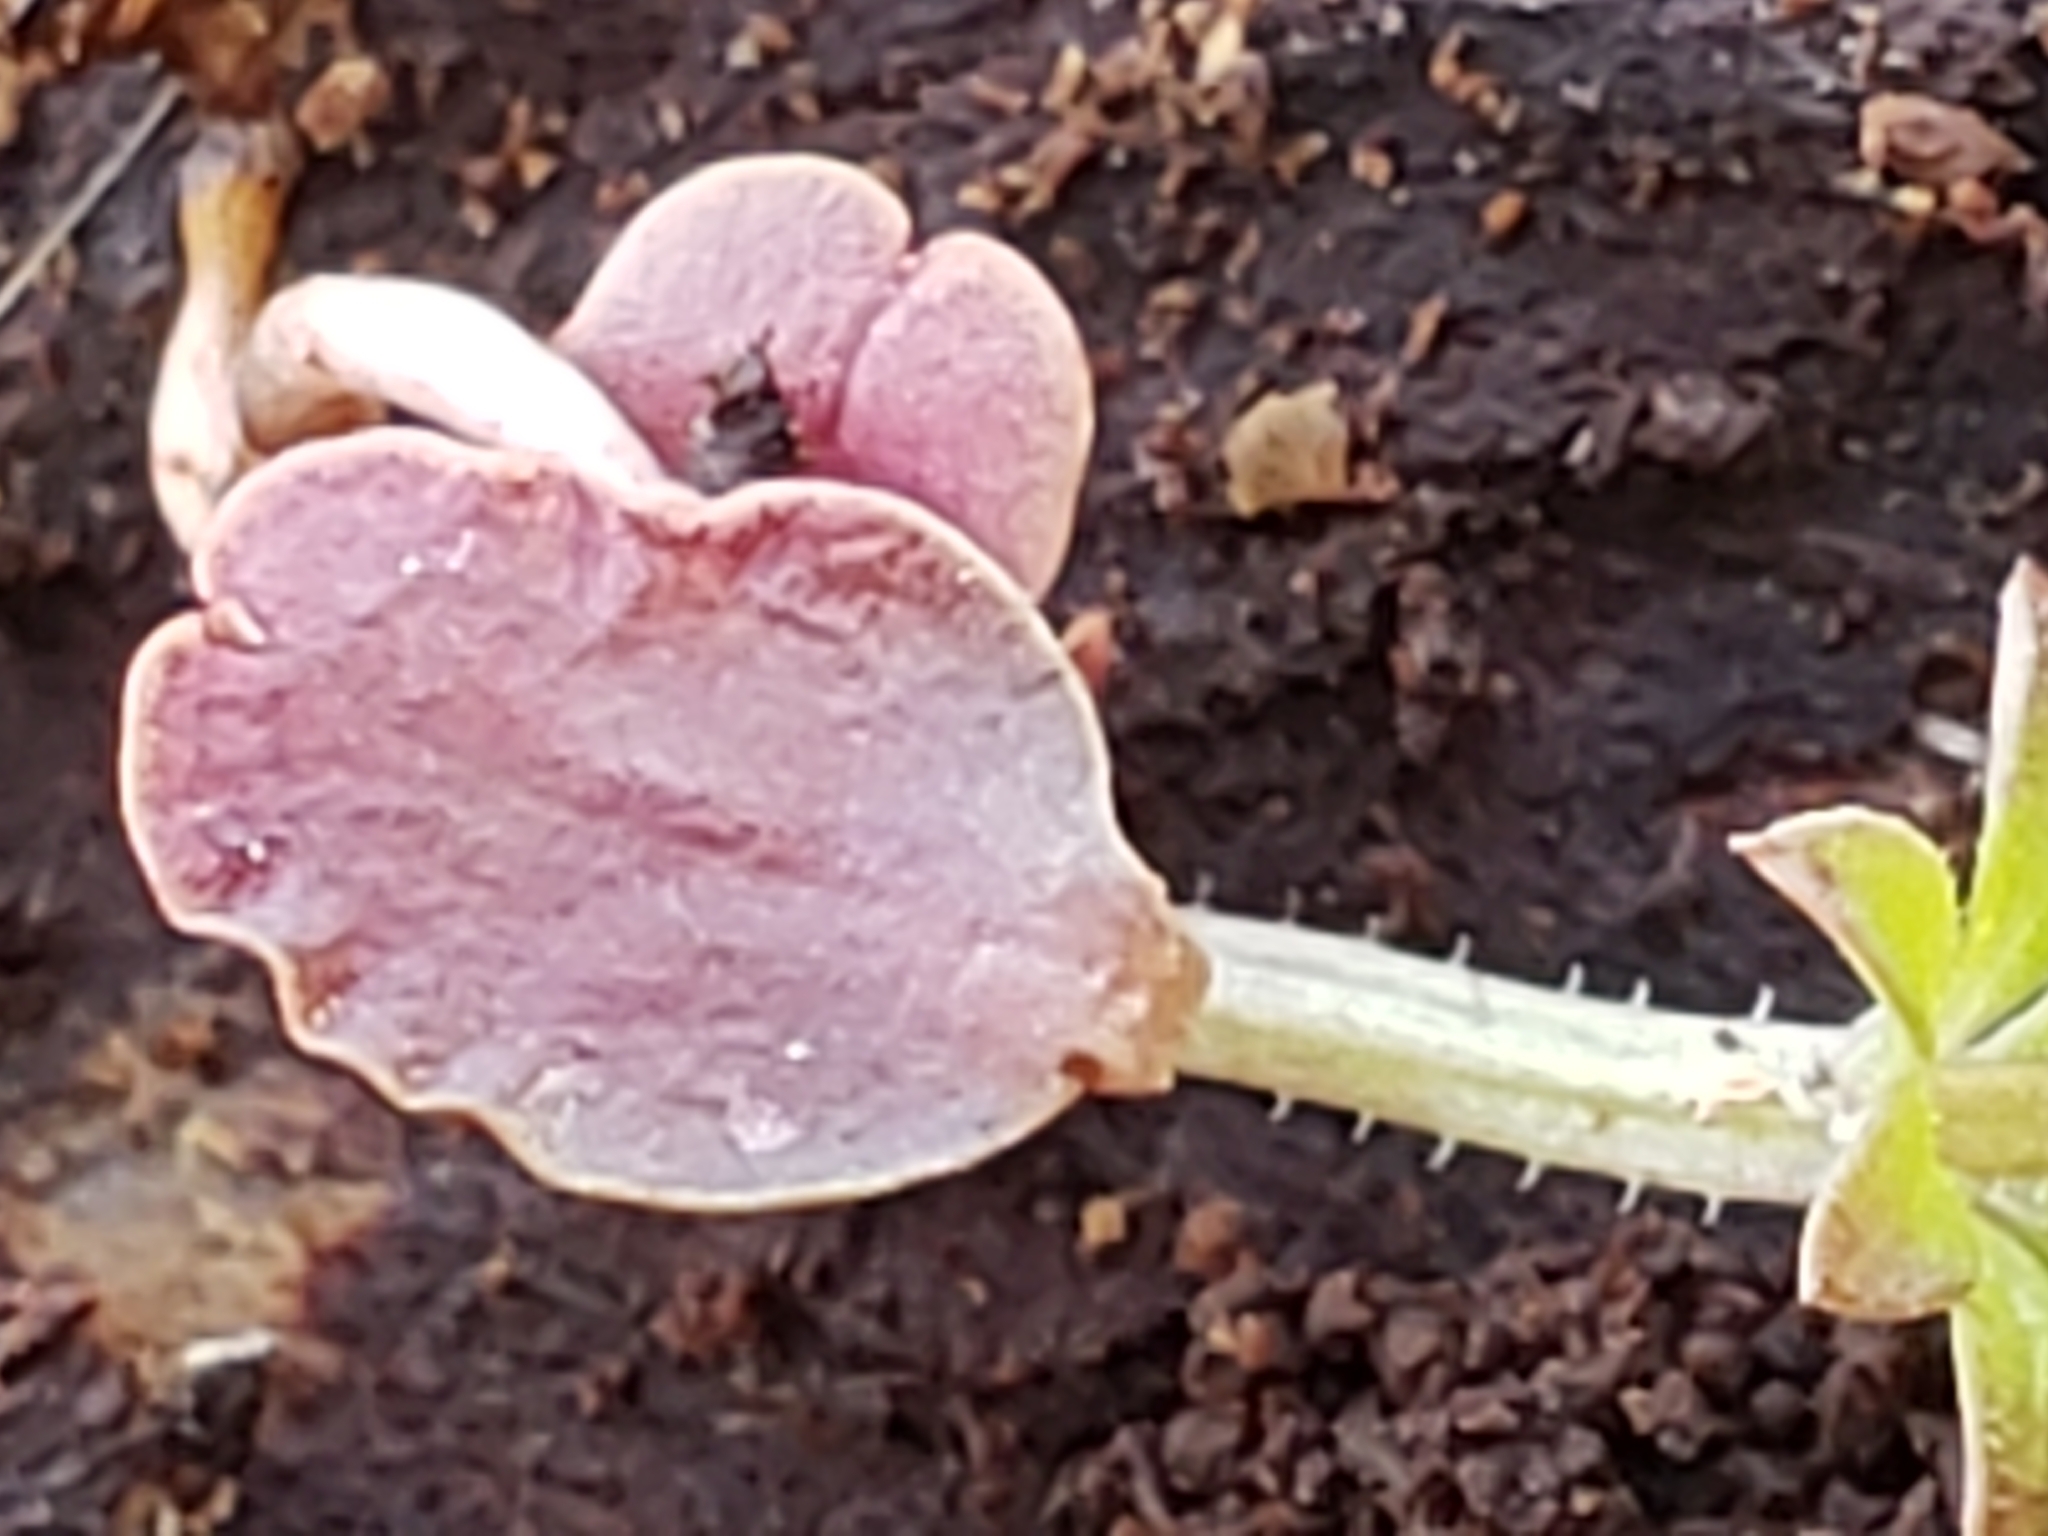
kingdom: Plantae
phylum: Tracheophyta
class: Magnoliopsida
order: Gentianales
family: Rubiaceae
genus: Galium
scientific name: Galium aparine
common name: Cleavers
